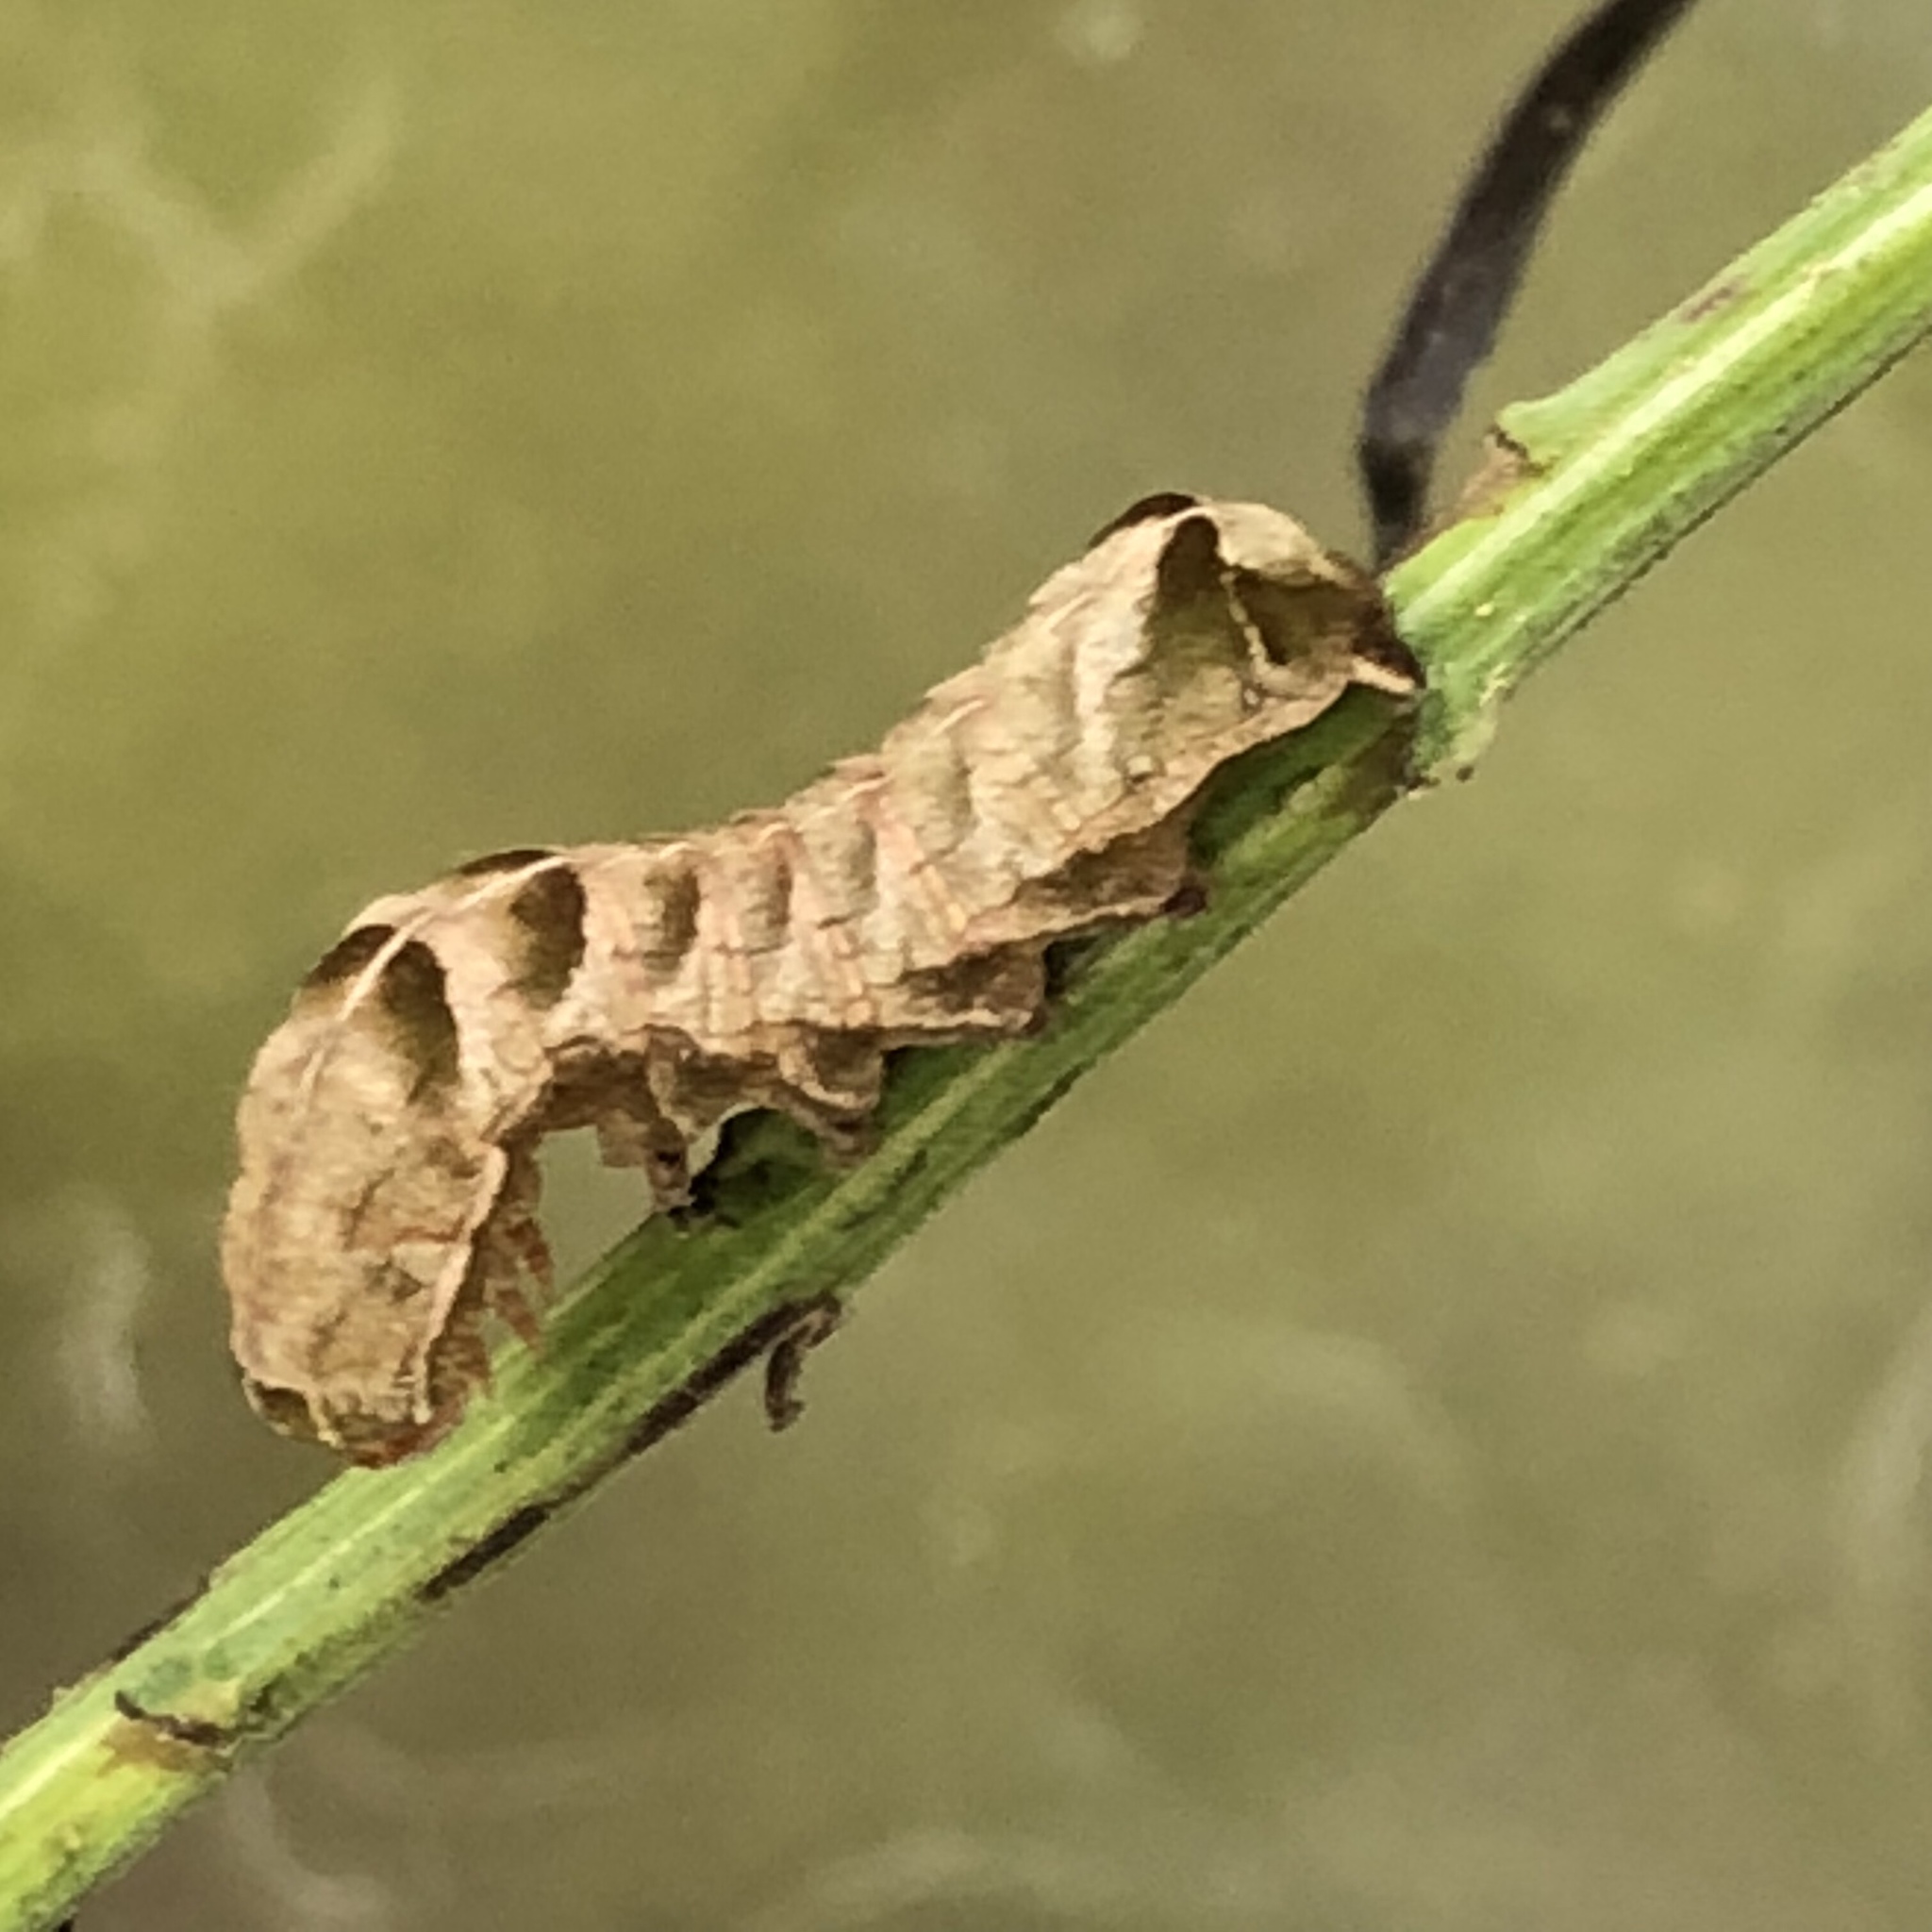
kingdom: Animalia
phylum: Arthropoda
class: Insecta
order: Lepidoptera
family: Noctuidae
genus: Melanchra
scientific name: Melanchra adjuncta
